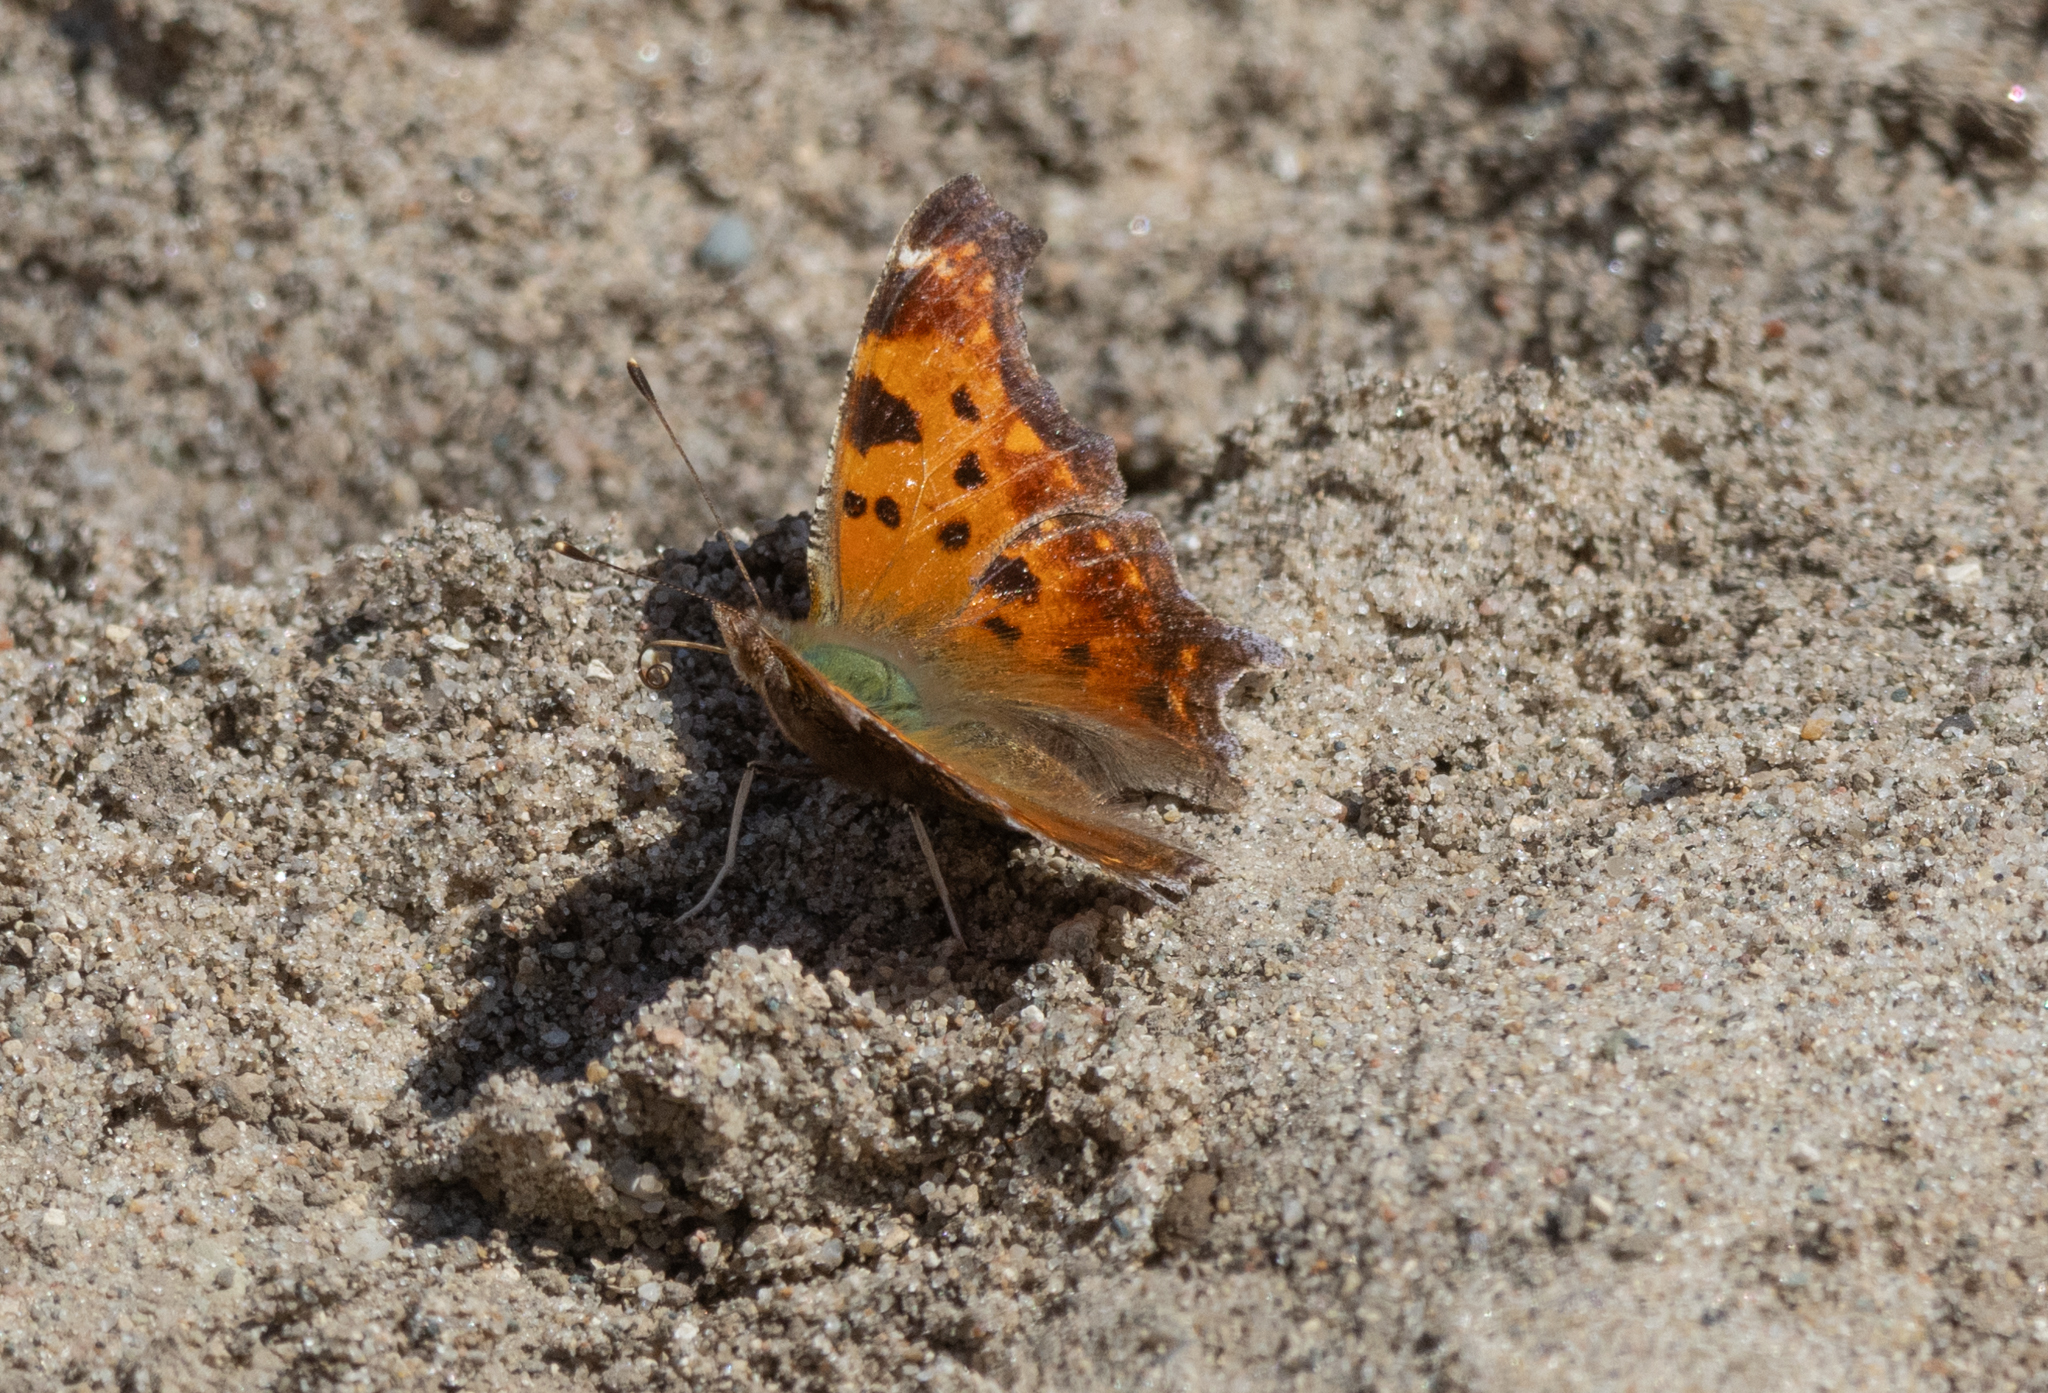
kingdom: Animalia
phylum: Arthropoda
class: Insecta
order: Lepidoptera
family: Nymphalidae
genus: Polygonia
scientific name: Polygonia comma
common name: Eastern comma
